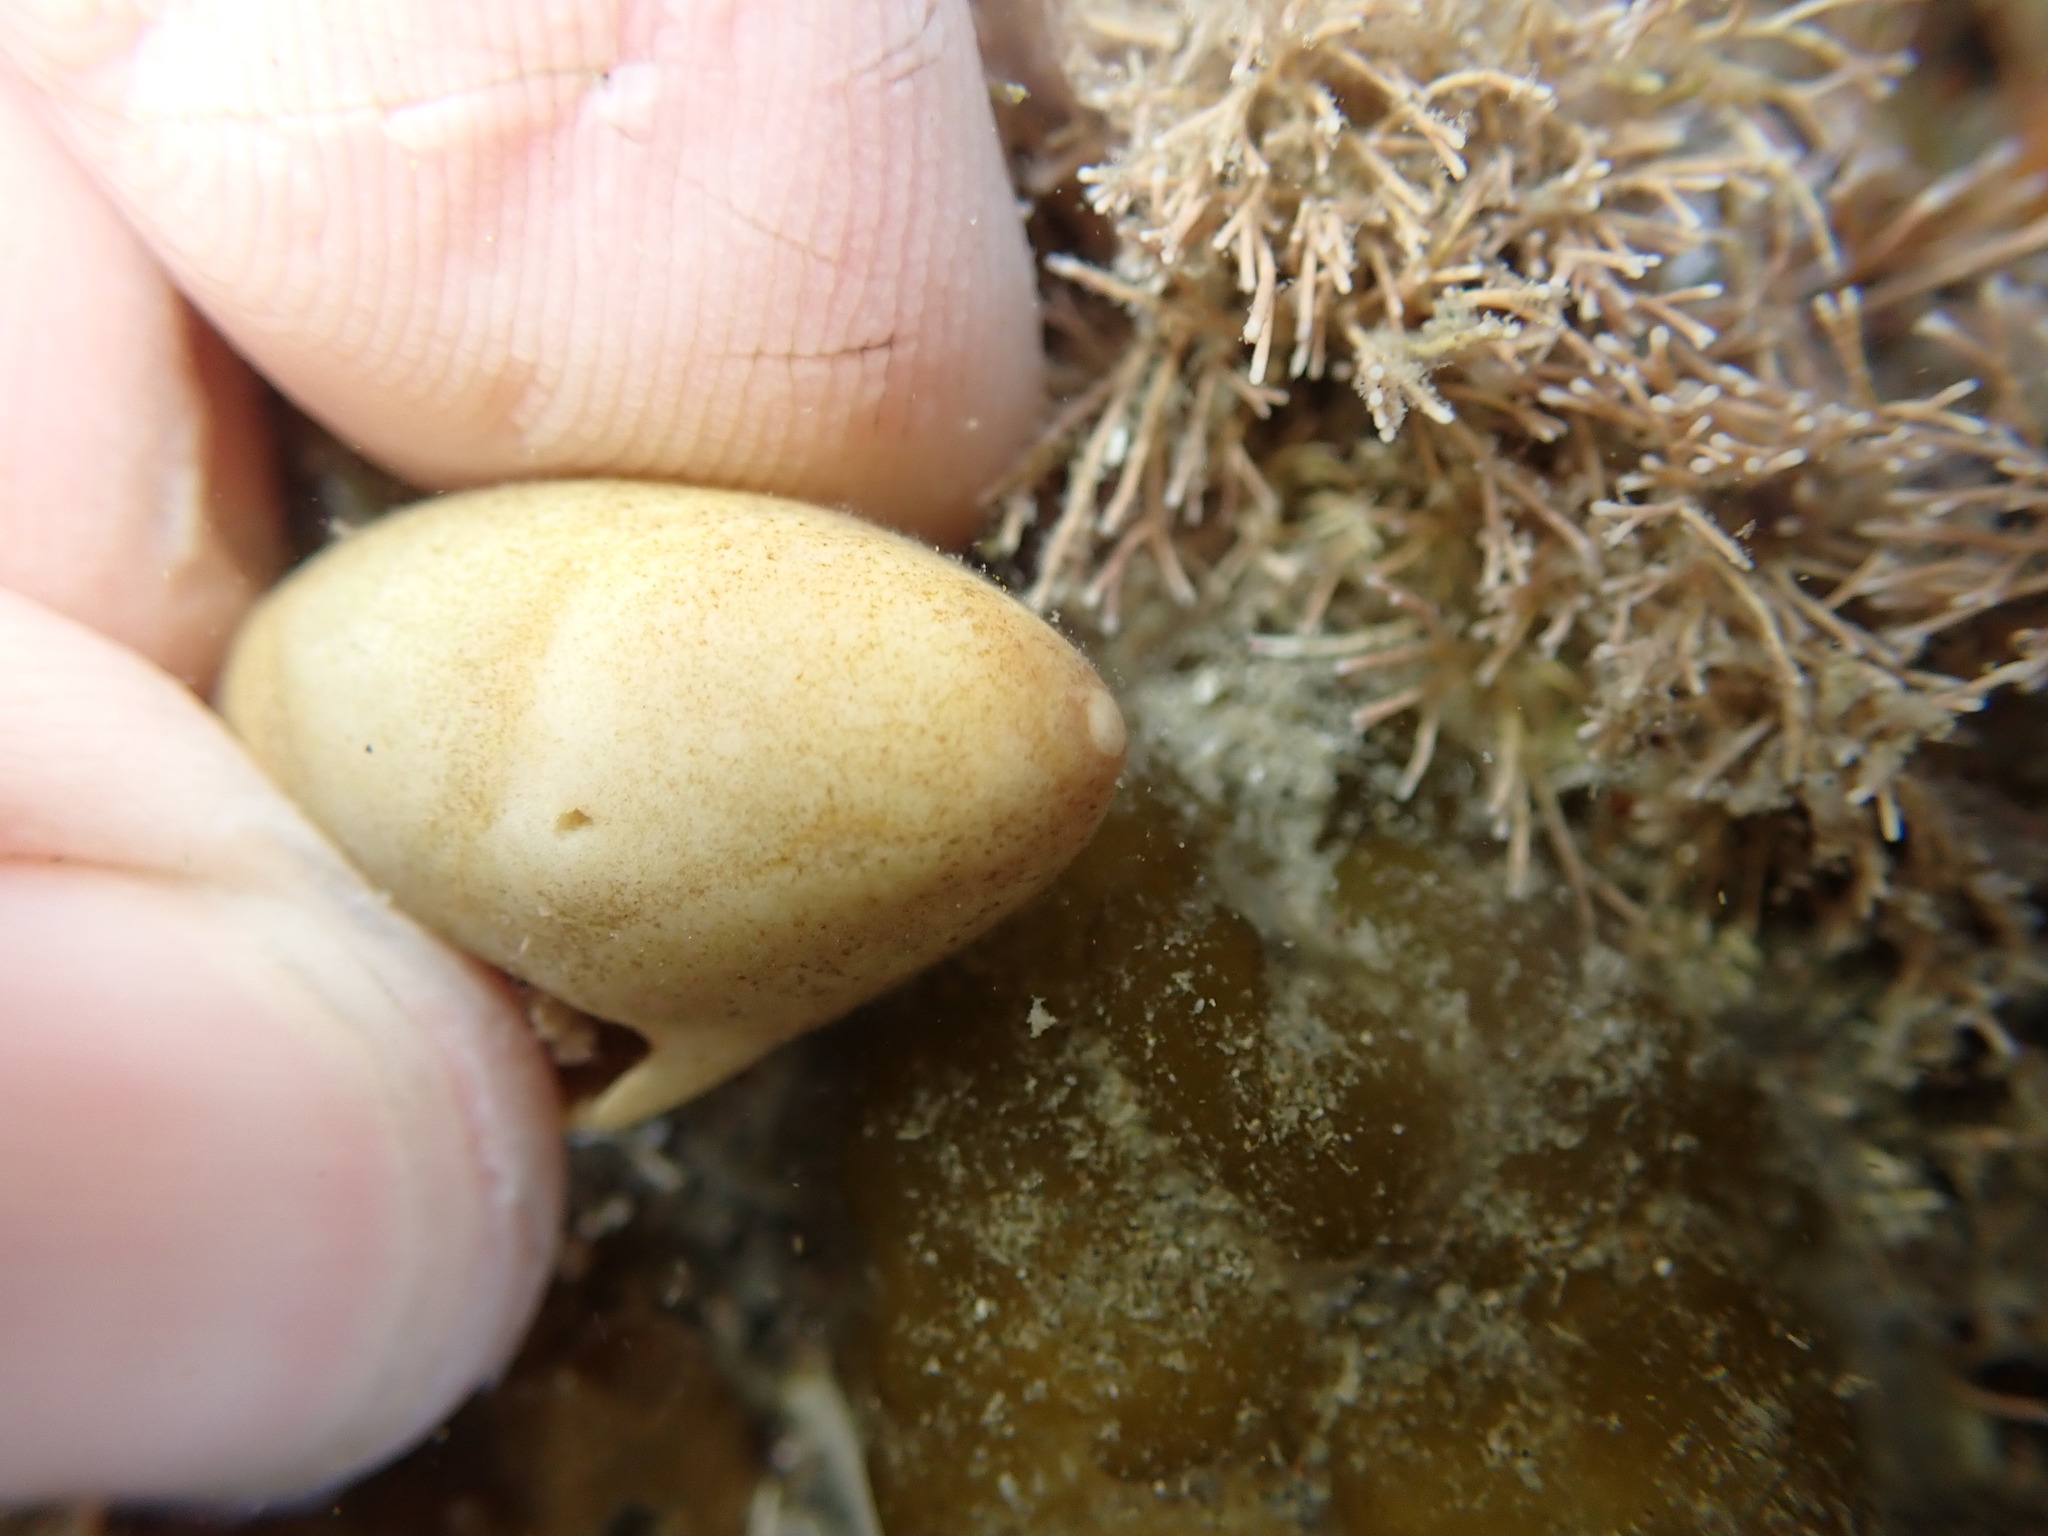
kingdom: Animalia
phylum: Mollusca
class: Gastropoda
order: Neogastropoda
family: Ancillariidae
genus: Amalda
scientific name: Amalda mucronata
